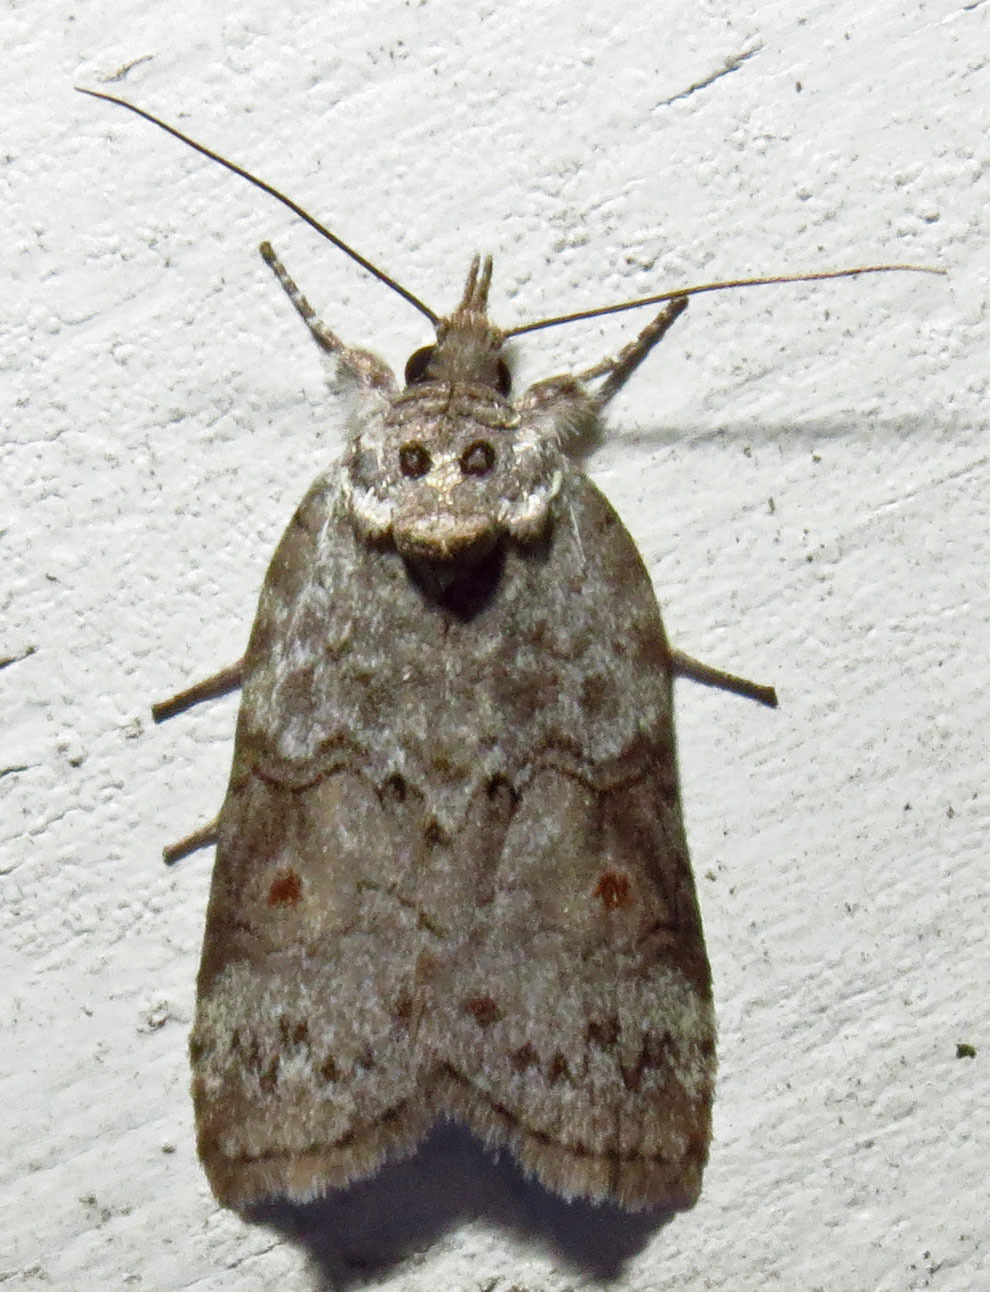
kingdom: Animalia
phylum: Arthropoda
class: Insecta
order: Lepidoptera
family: Nolidae
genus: Nycteola
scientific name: Nycteola metaspilella
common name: Forgotten frigid owlet
